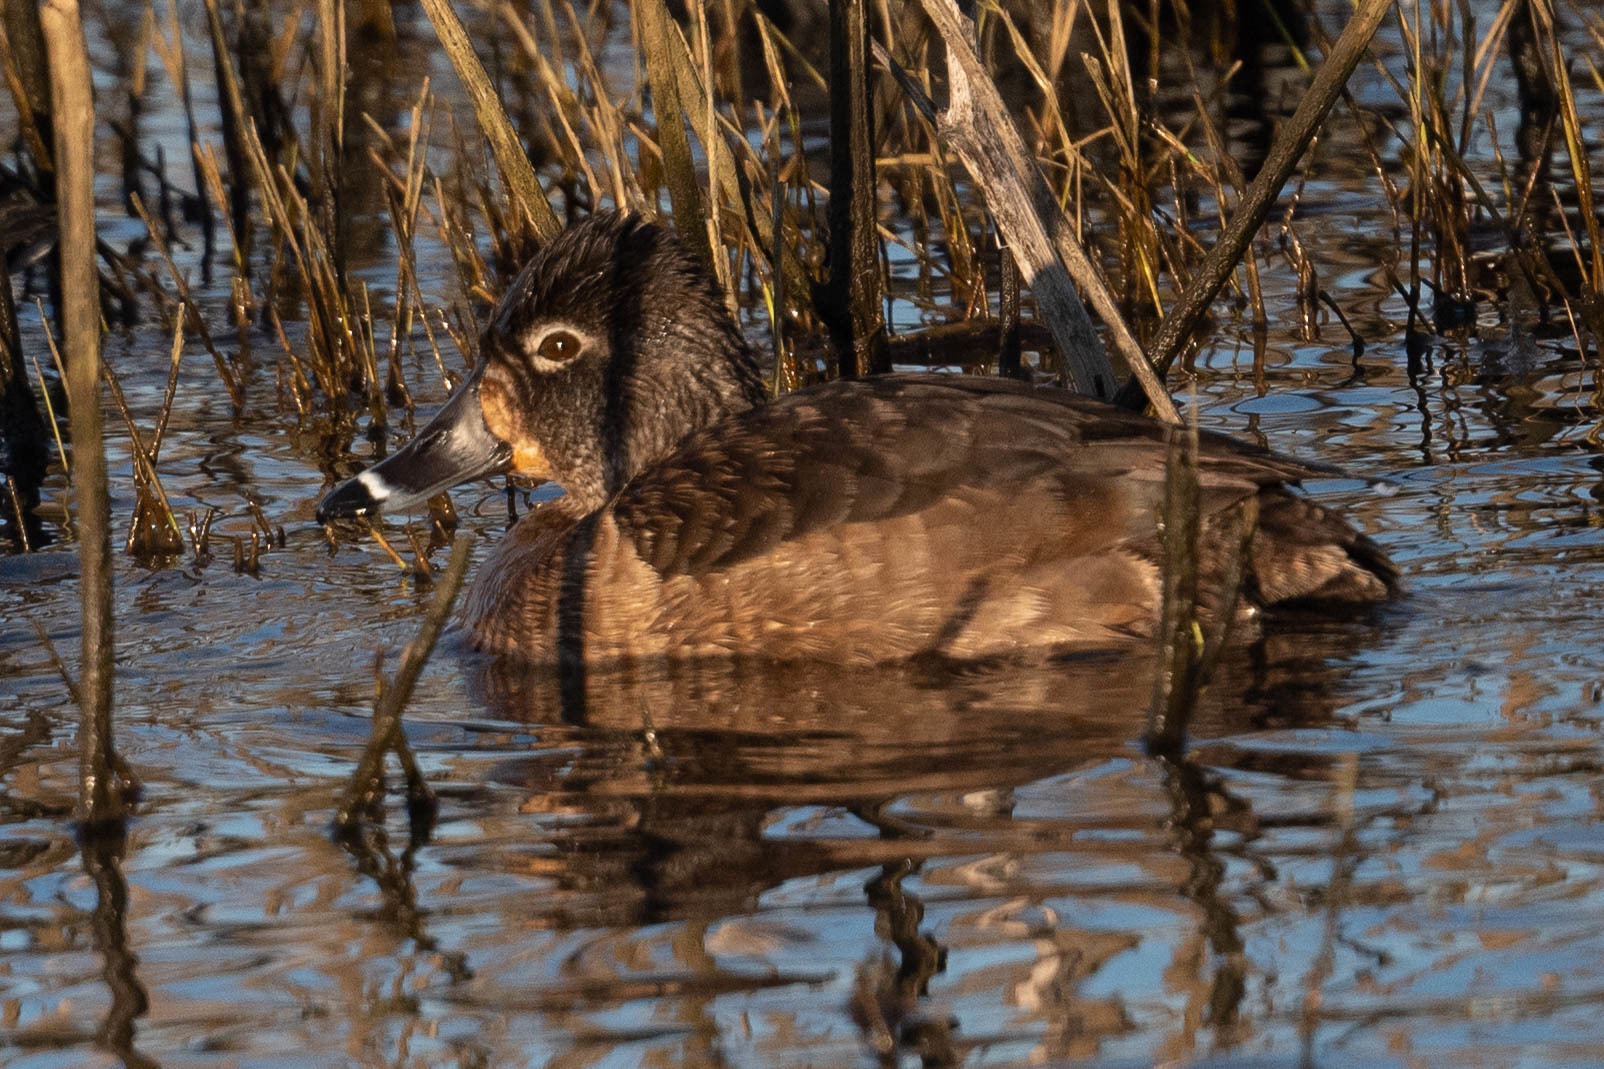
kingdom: Animalia
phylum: Chordata
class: Aves
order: Anseriformes
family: Anatidae
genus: Aythya
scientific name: Aythya collaris
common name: Ring-necked duck
